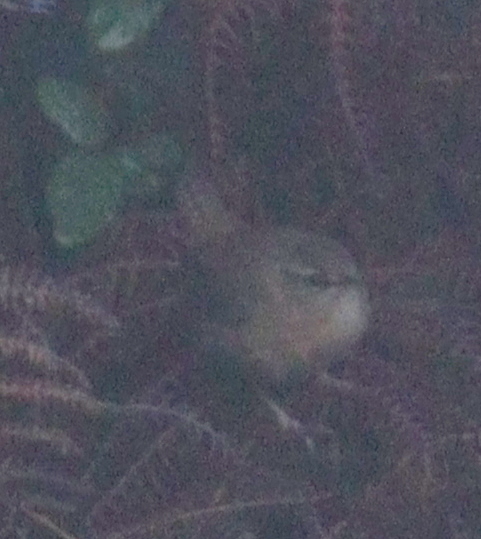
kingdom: Animalia
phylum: Chordata
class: Aves
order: Passeriformes
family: Troglodytidae
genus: Troglodytes
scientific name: Troglodytes troglodytes
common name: Eurasian wren
